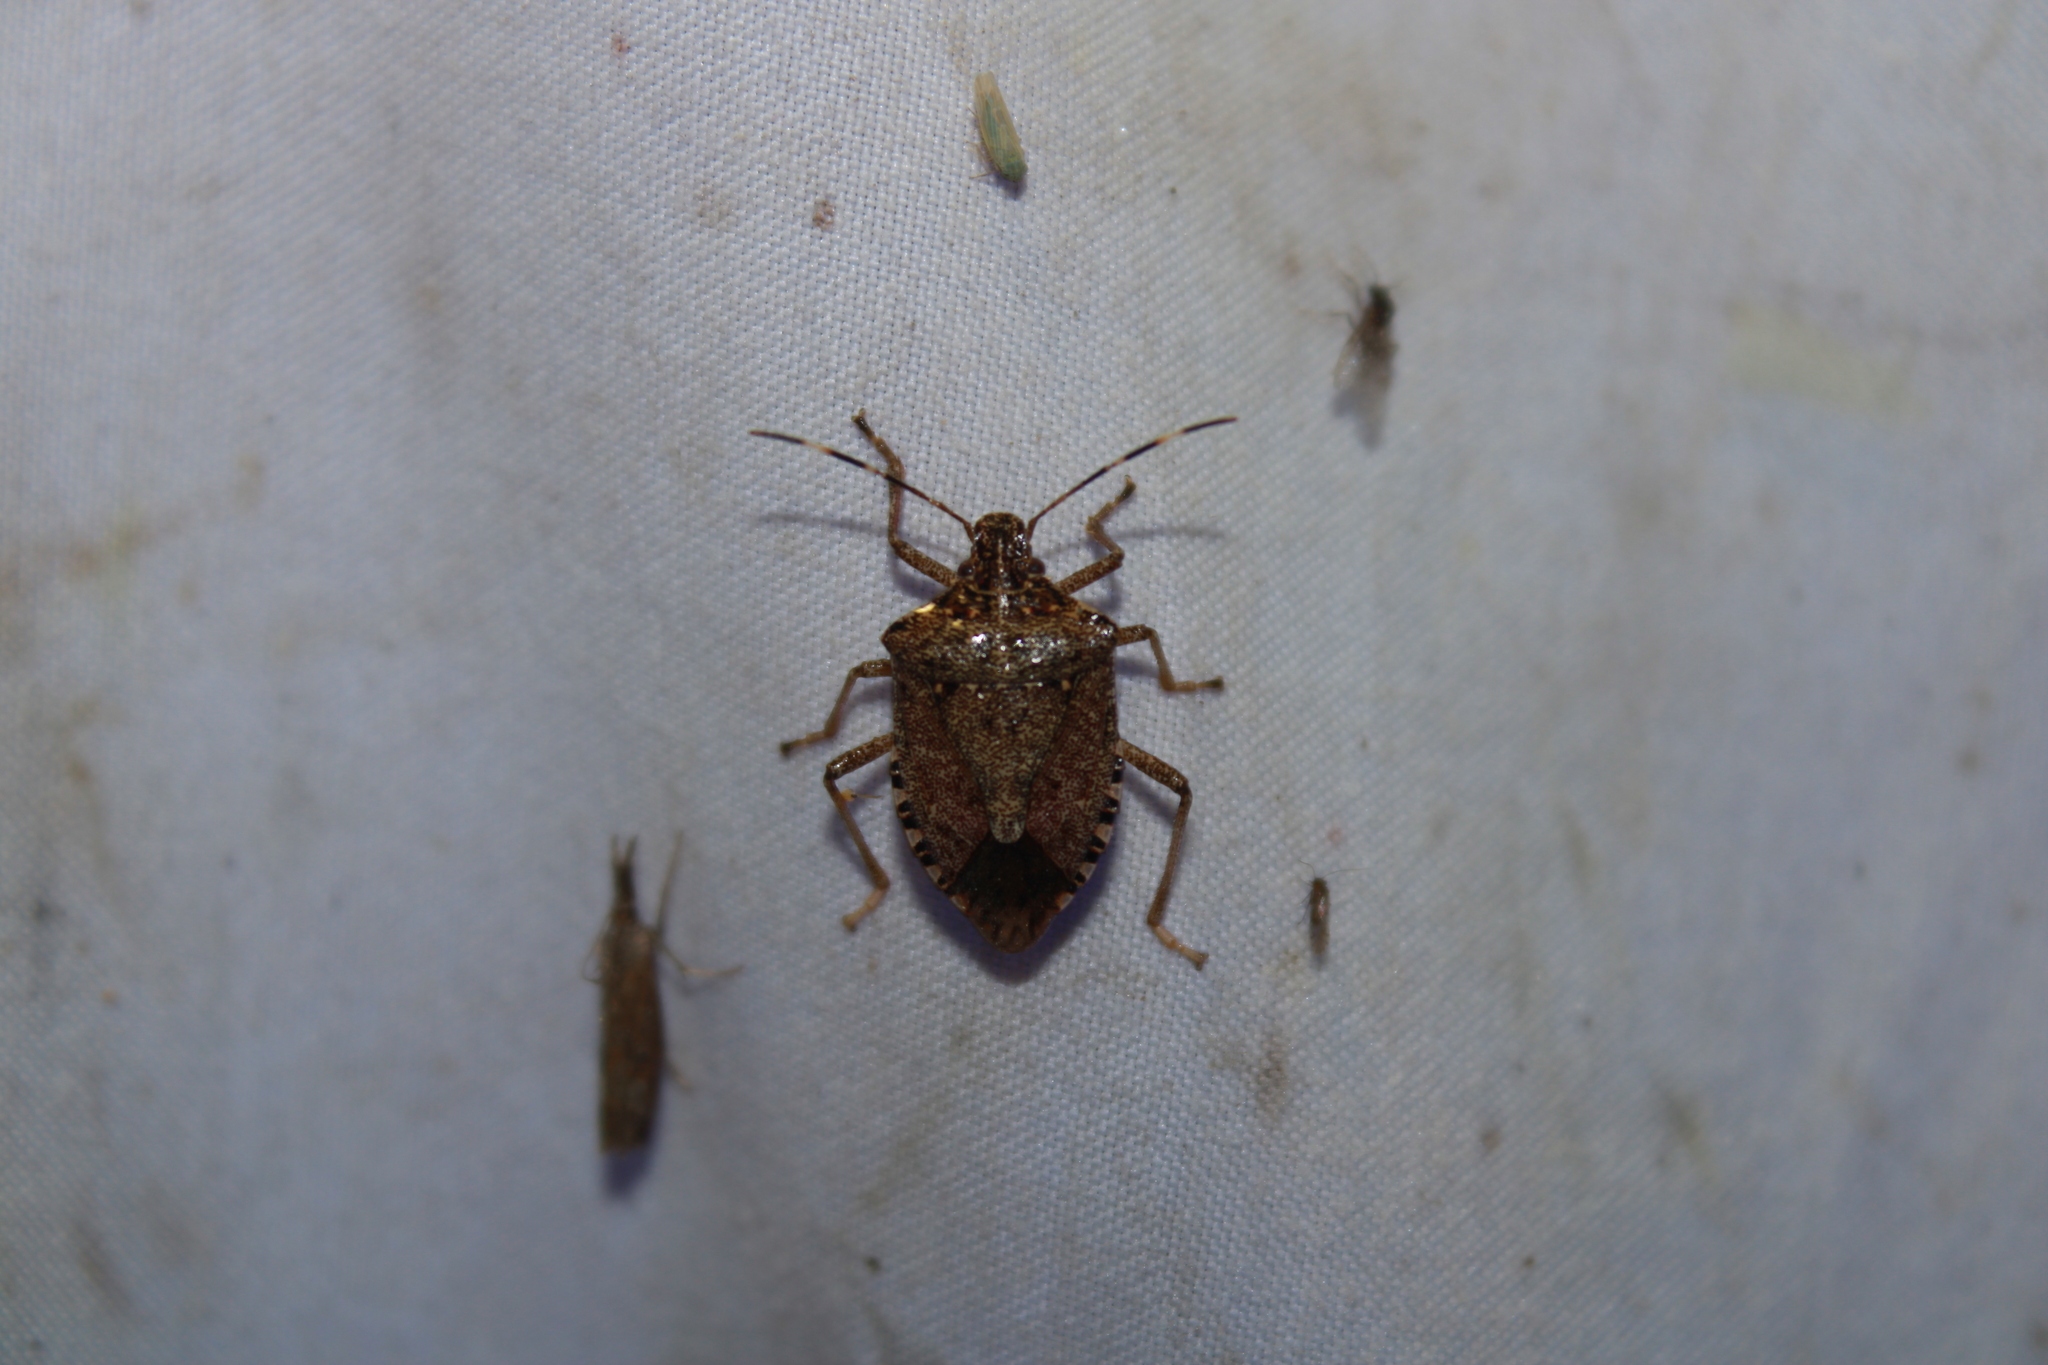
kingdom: Animalia
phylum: Arthropoda
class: Insecta
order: Hemiptera
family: Pentatomidae
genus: Halyomorpha
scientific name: Halyomorpha halys
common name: Brown marmorated stink bug
